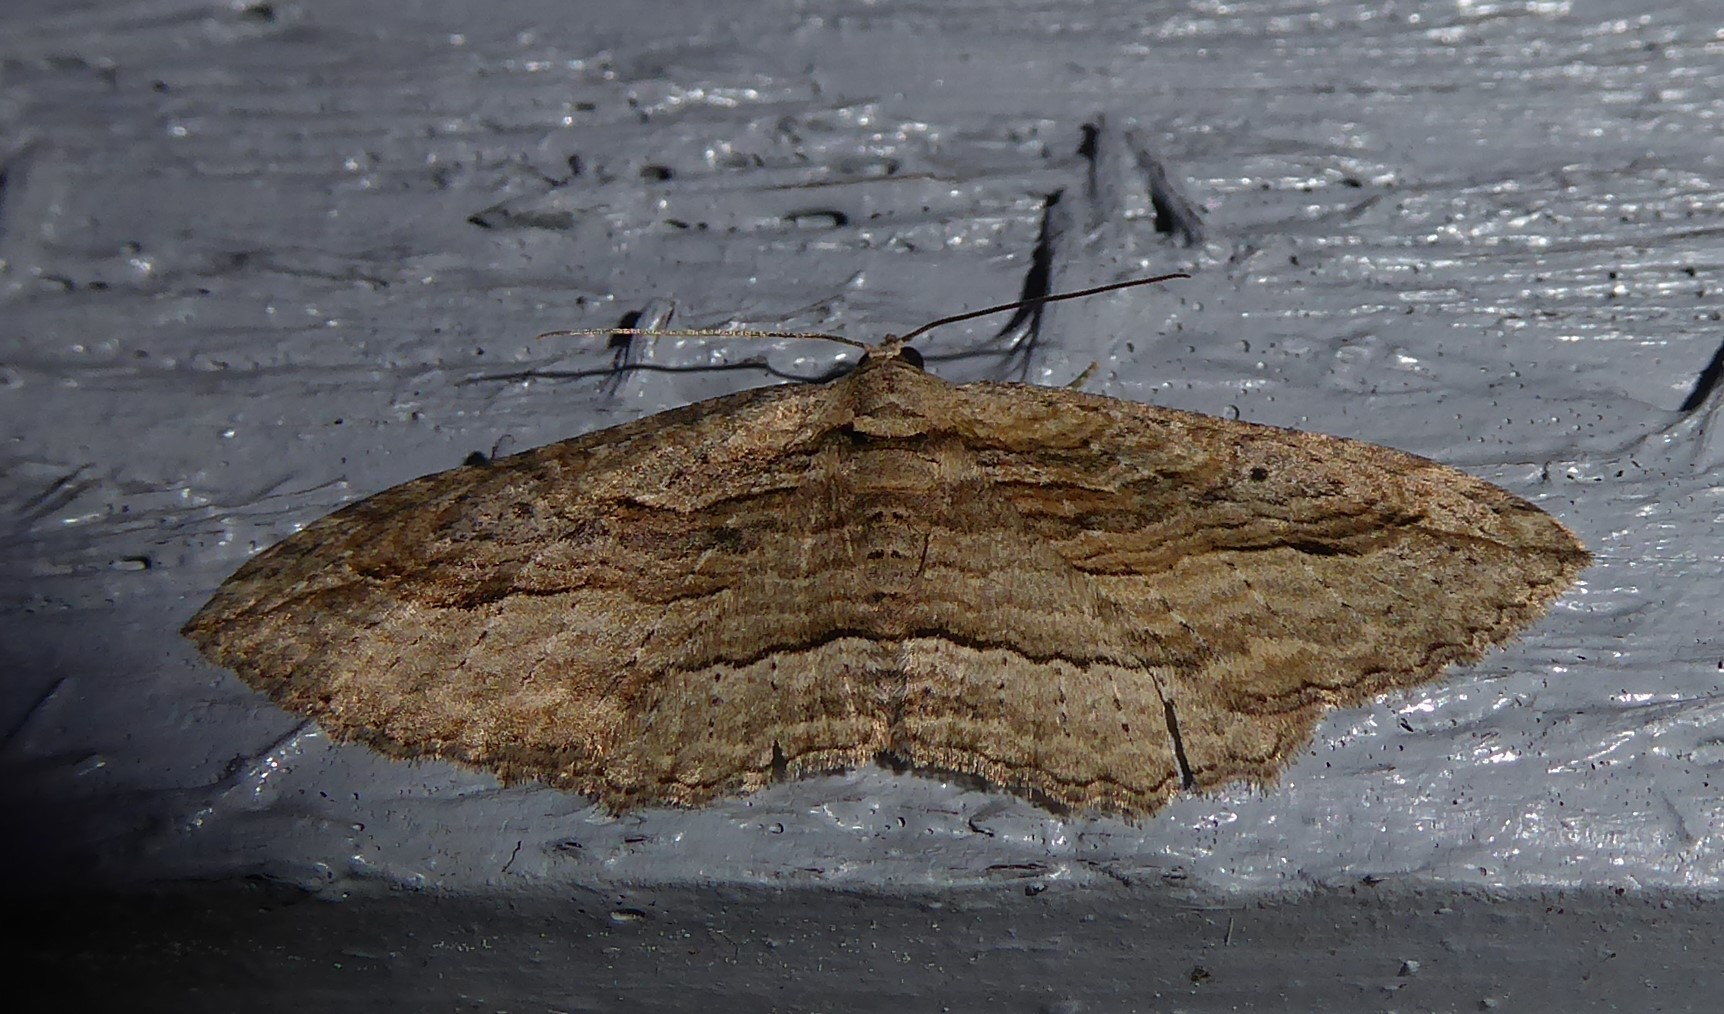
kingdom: Animalia
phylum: Arthropoda
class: Insecta
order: Lepidoptera
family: Geometridae
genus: Austrocidaria
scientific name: Austrocidaria gobiata
